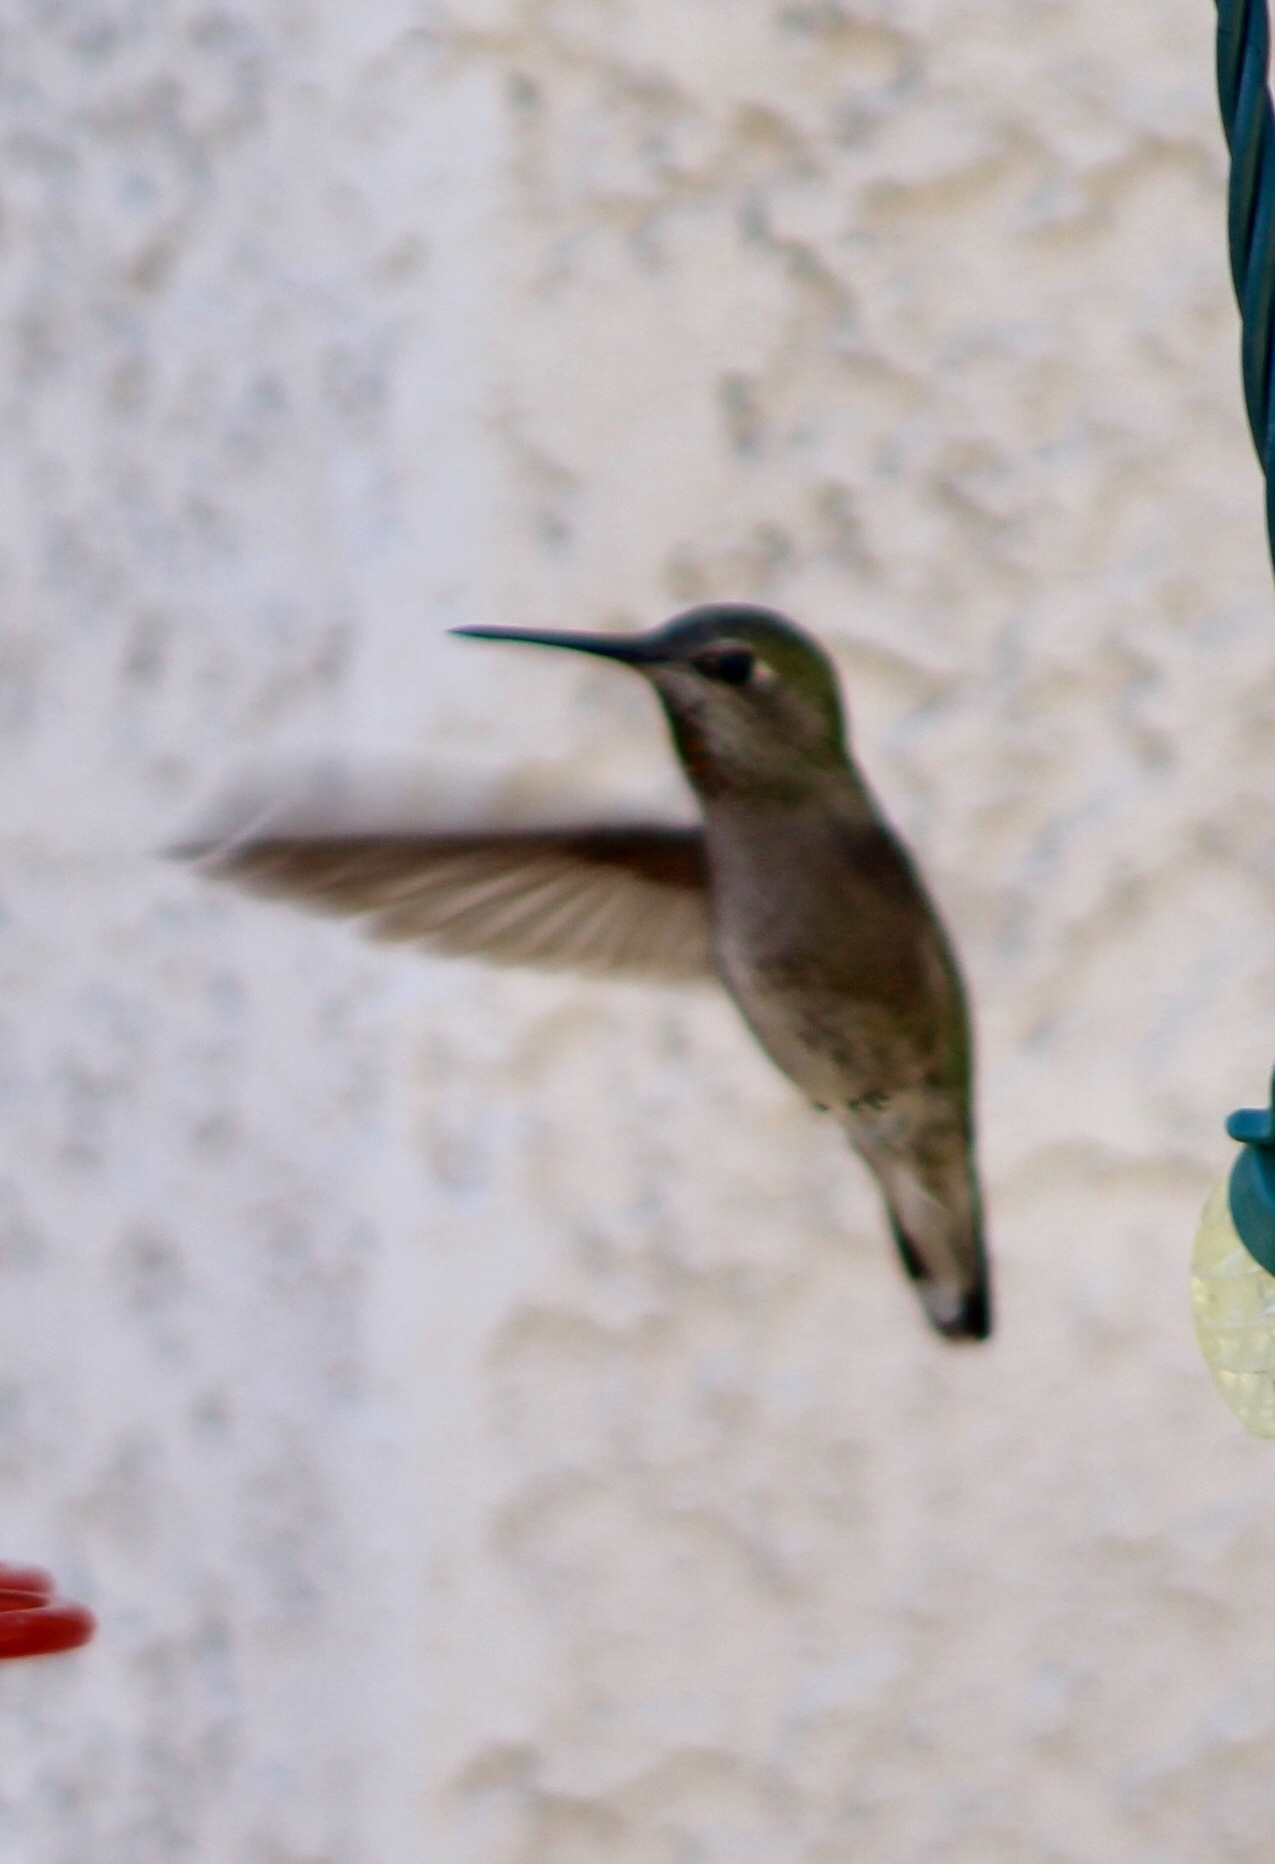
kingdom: Animalia
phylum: Chordata
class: Aves
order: Apodiformes
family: Trochilidae
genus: Calypte
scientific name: Calypte anna
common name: Anna's hummingbird
